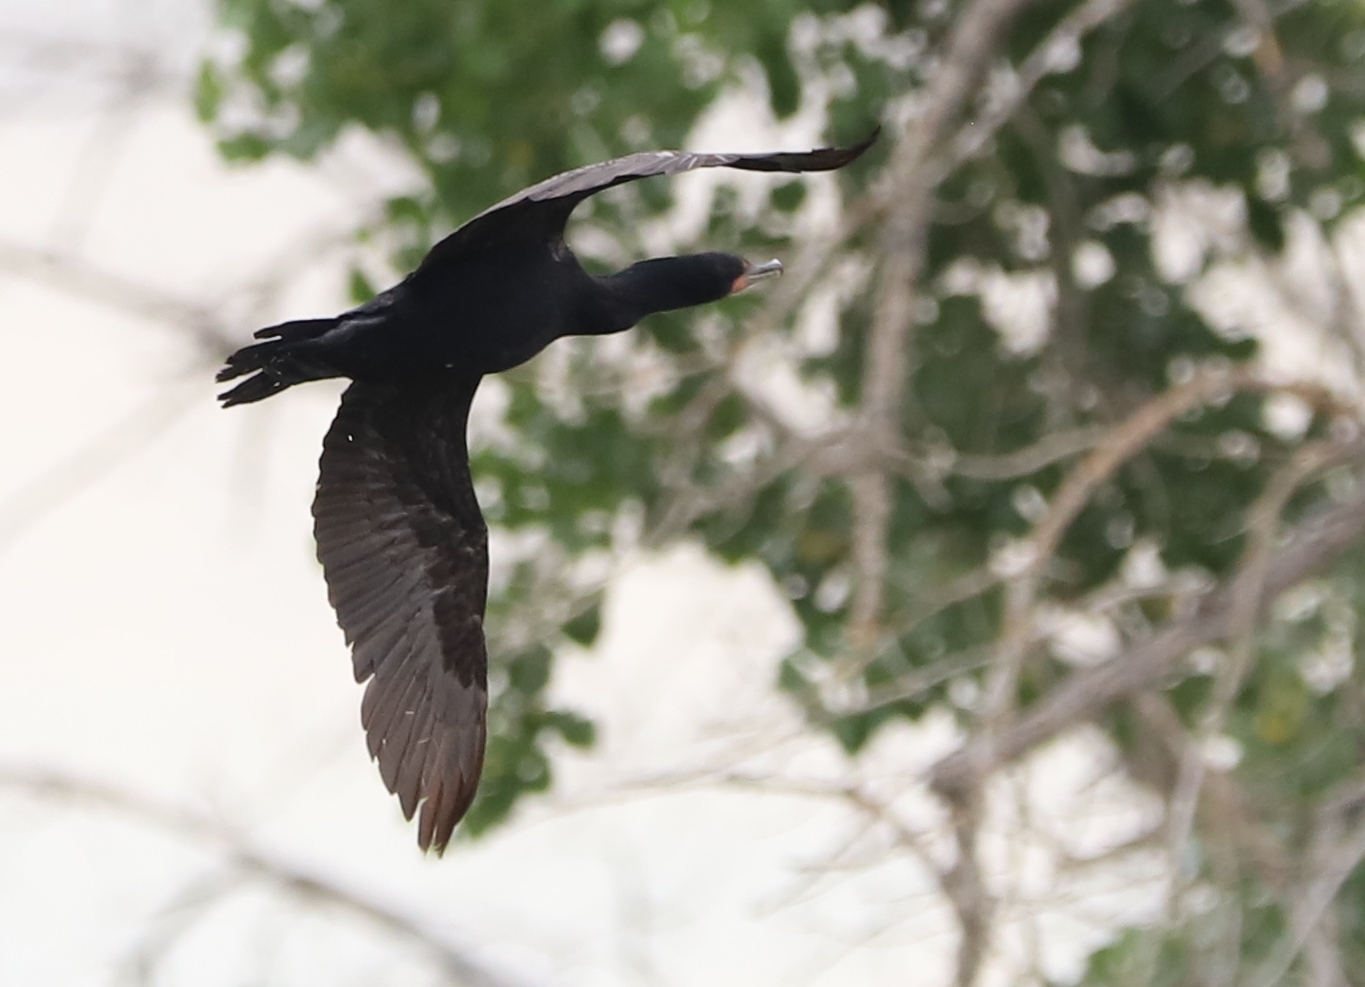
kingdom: Animalia
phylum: Chordata
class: Aves
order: Suliformes
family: Phalacrocoracidae
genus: Phalacrocorax
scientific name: Phalacrocorax auritus
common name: Double-crested cormorant
